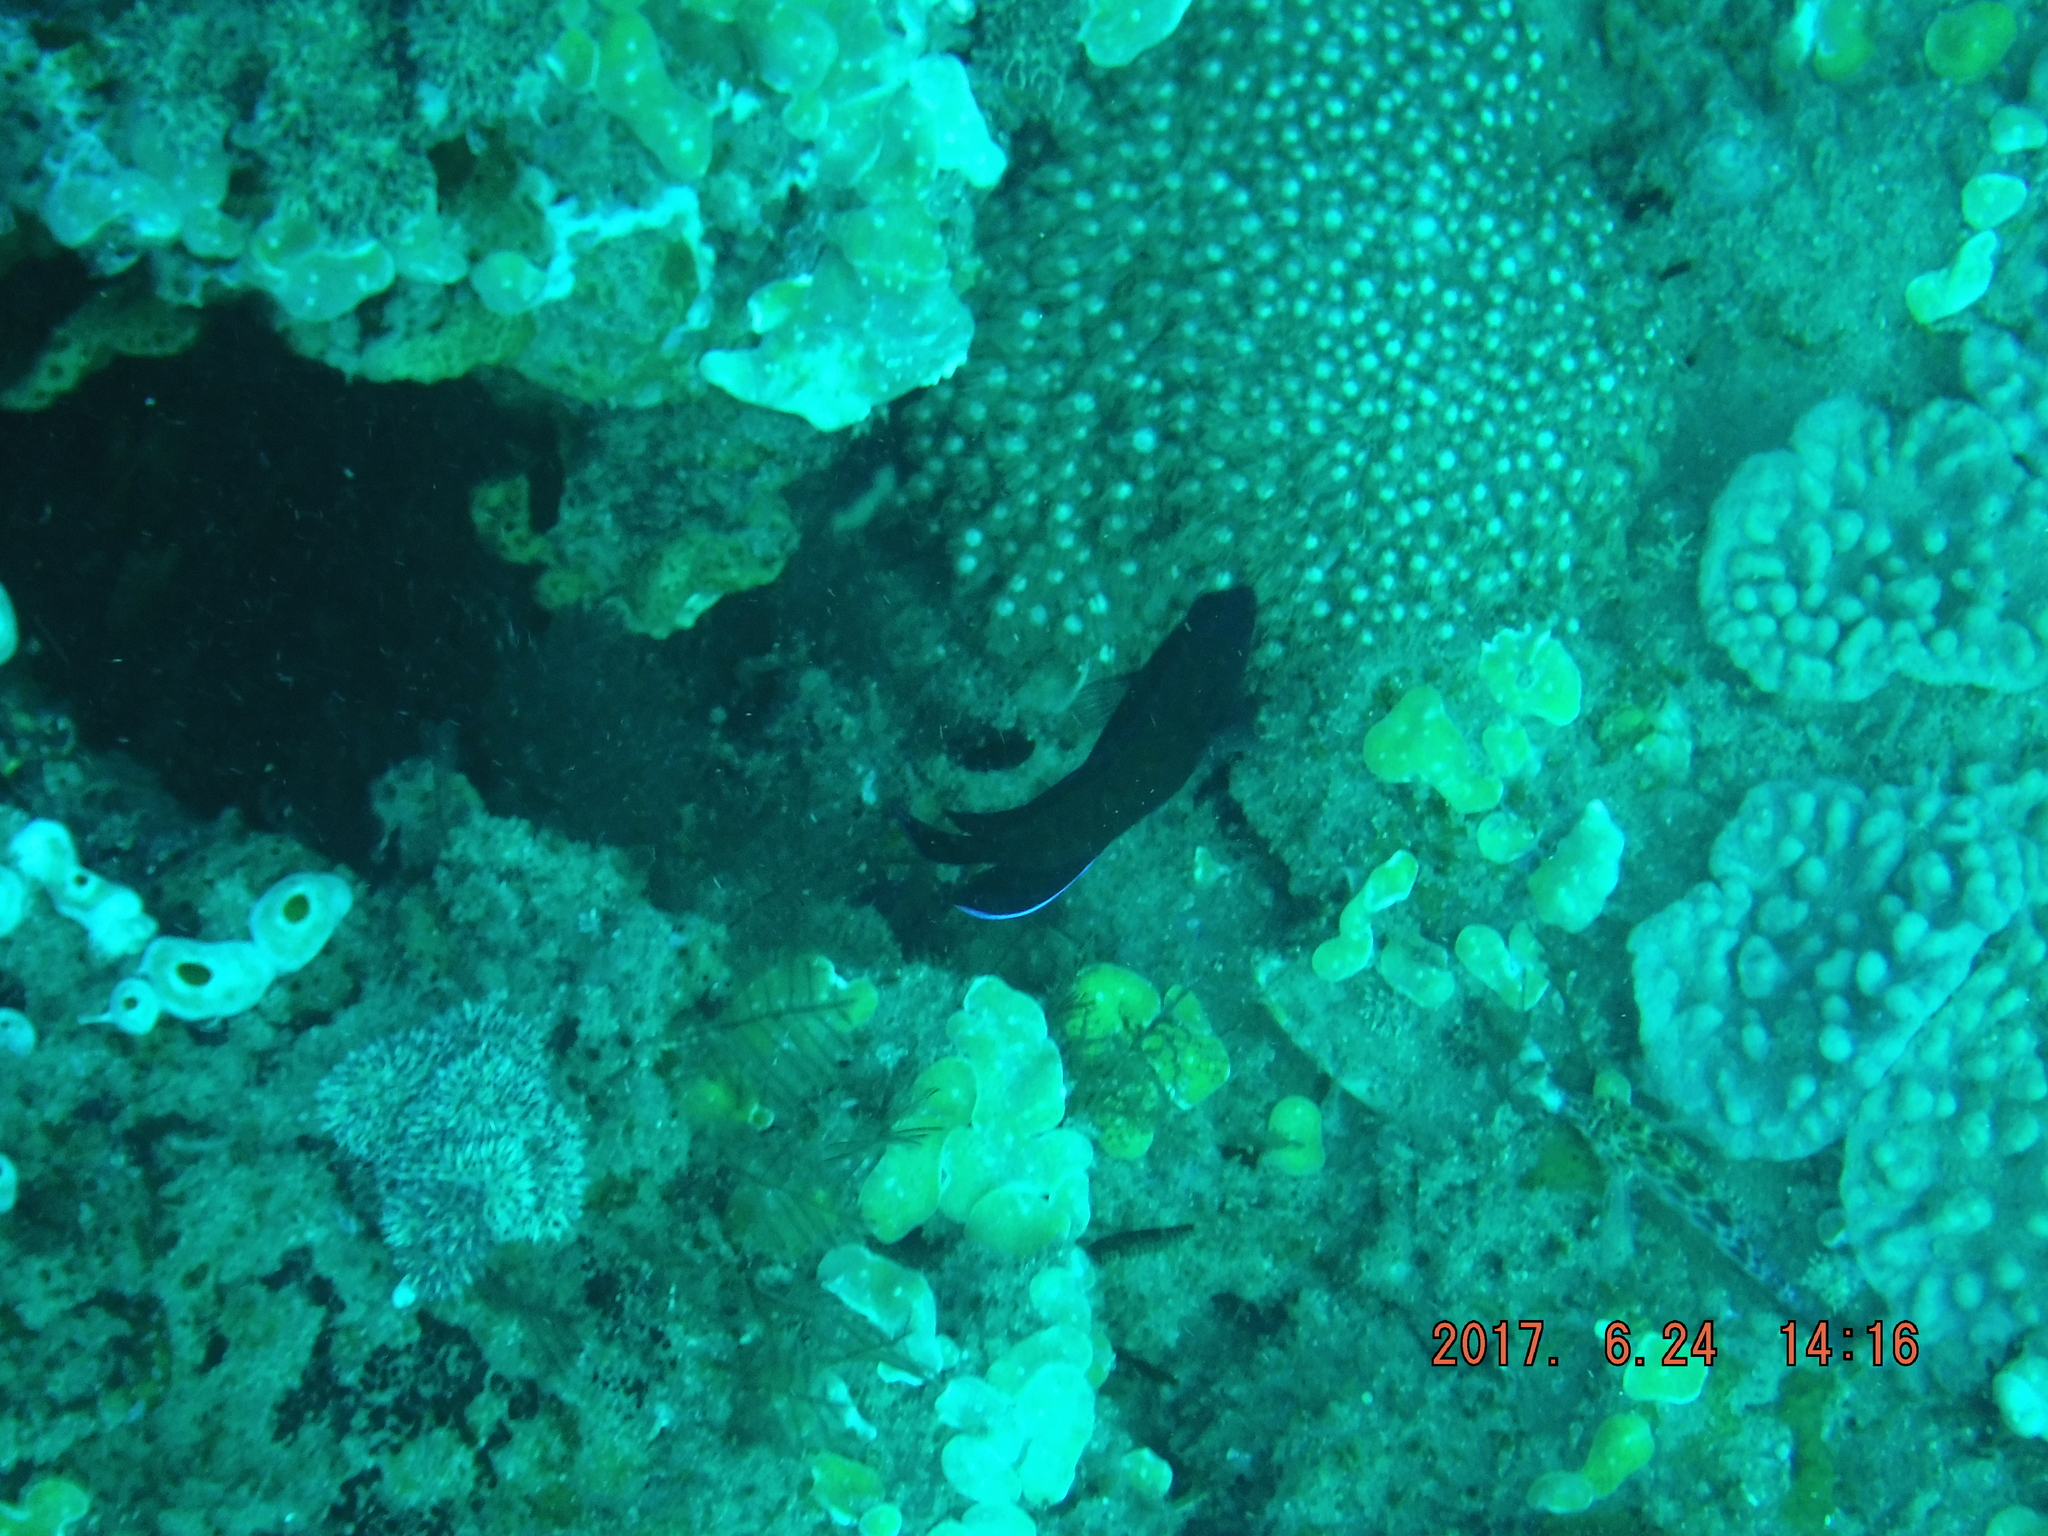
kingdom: Animalia
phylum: Chordata
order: Perciformes
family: Pomacanthidae
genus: Centropyge
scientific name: Centropyge multispinis
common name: Many-spined angelfish
